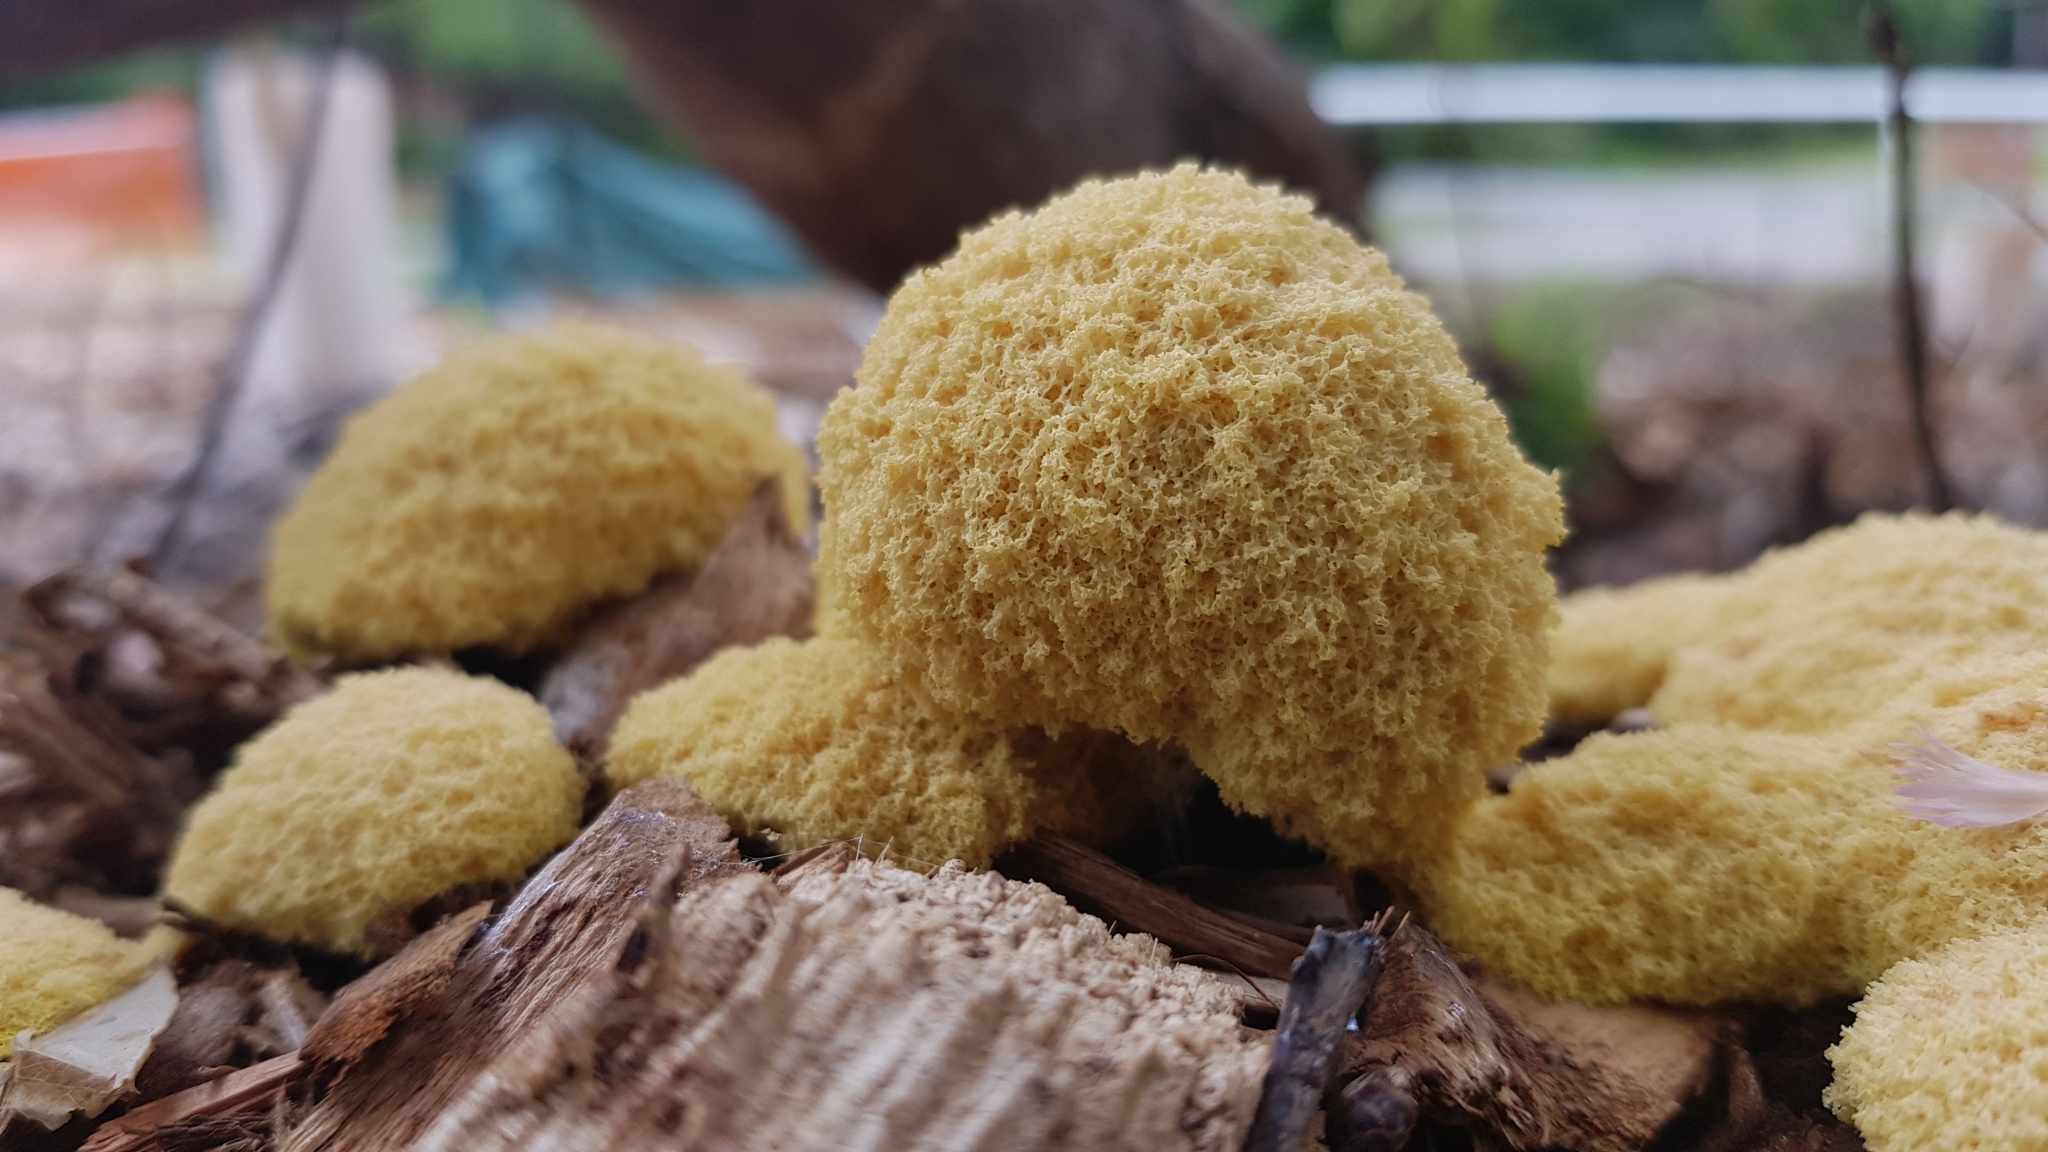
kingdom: Protozoa
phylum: Mycetozoa
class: Myxomycetes
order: Physarales
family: Physaraceae
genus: Fuligo
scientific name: Fuligo septica
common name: Dog vomit slime mold
